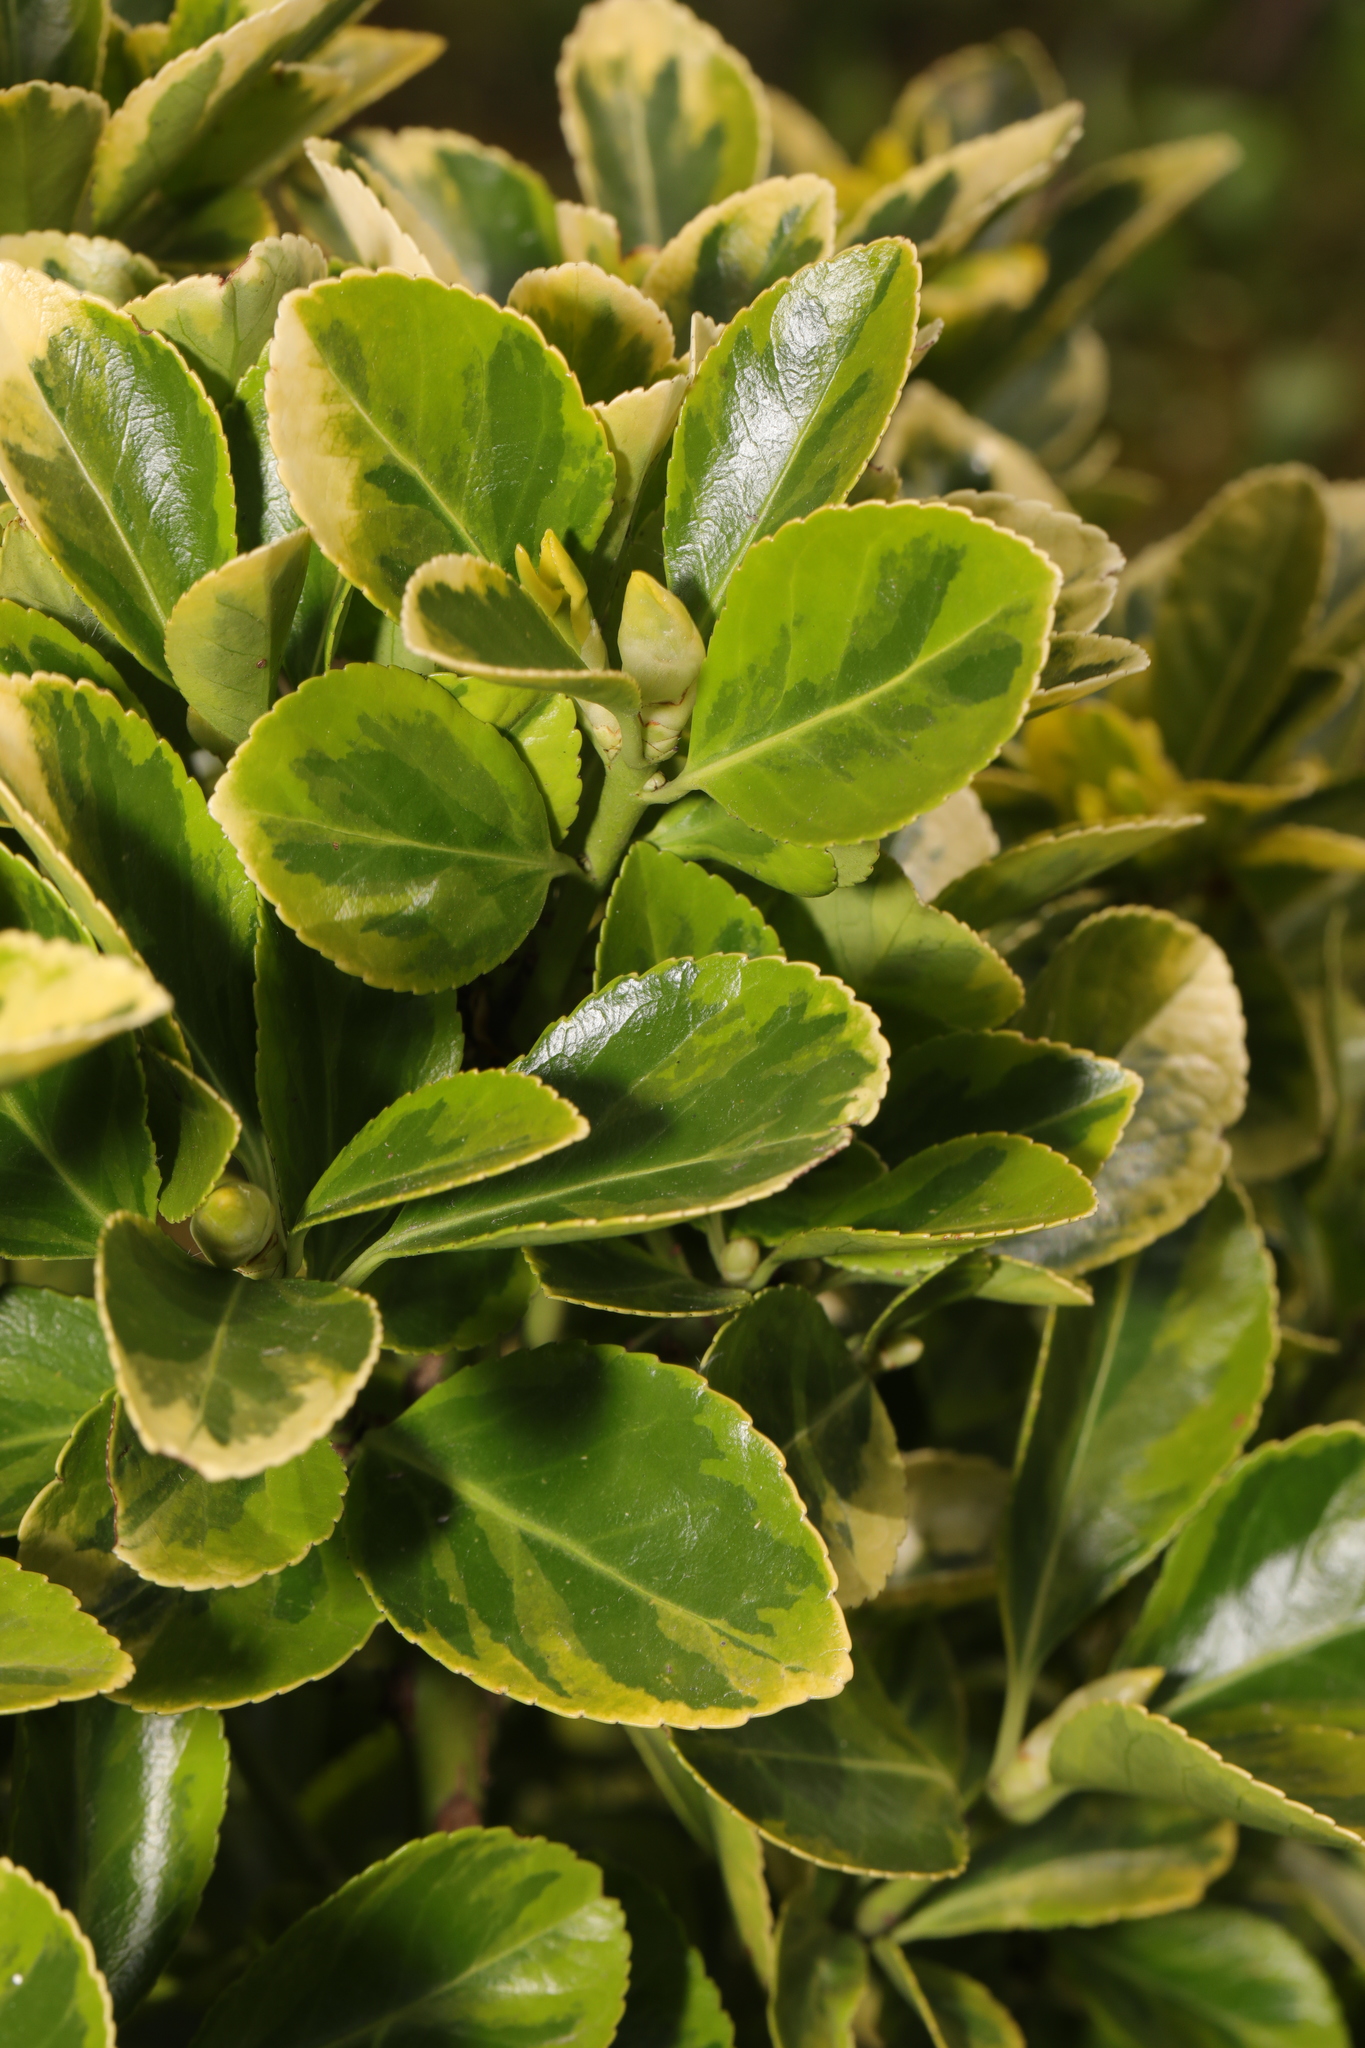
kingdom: Plantae
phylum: Tracheophyta
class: Magnoliopsida
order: Celastrales
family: Celastraceae
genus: Euonymus
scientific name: Euonymus japonicus
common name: Japanese spindletree
